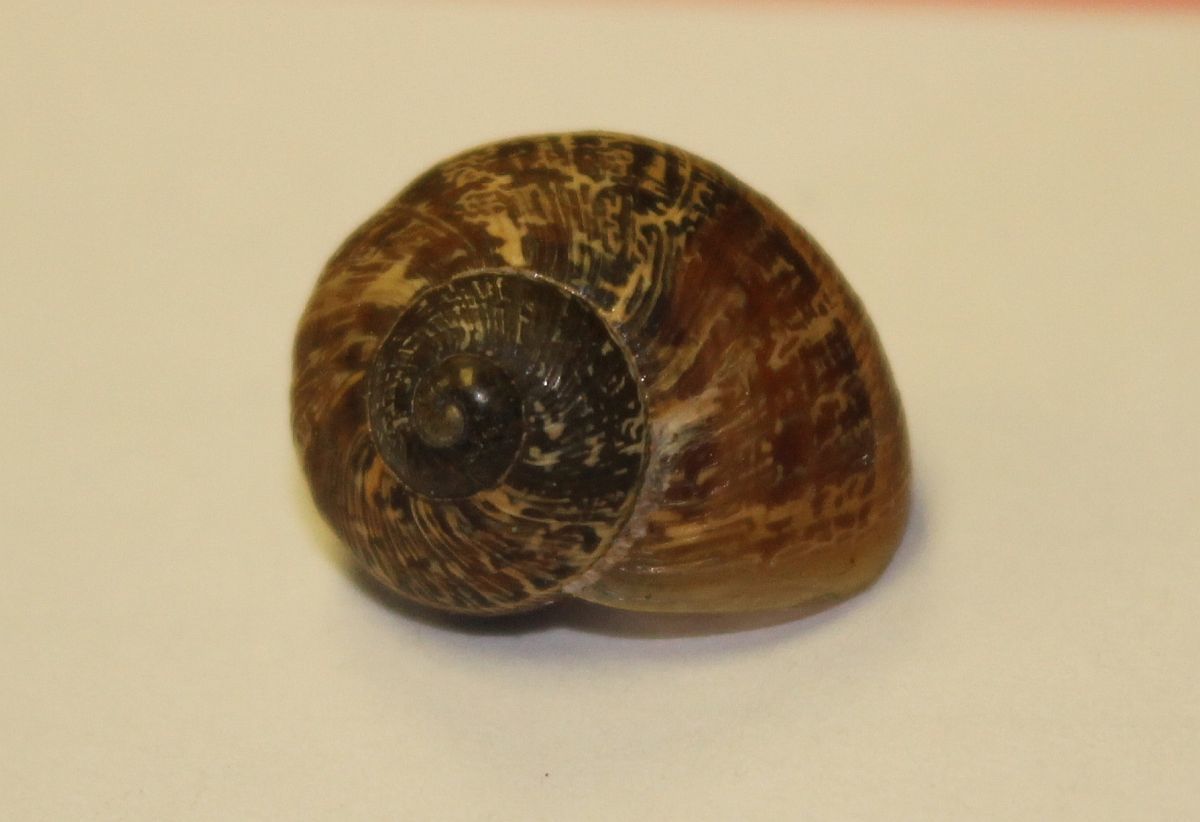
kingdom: Animalia
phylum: Mollusca
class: Gastropoda
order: Stylommatophora
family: Helicidae
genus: Cornu
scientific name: Cornu aspersum
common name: Brown garden snail
